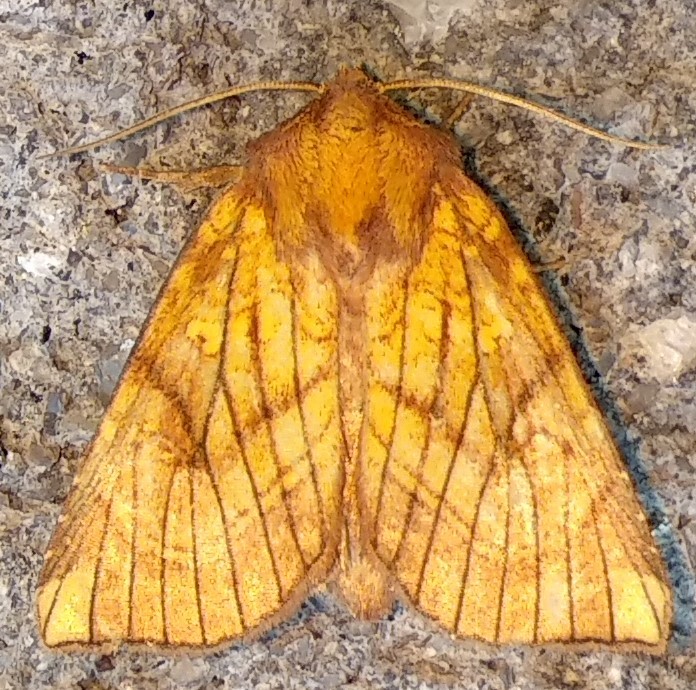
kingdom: Animalia
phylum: Arthropoda
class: Insecta
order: Lepidoptera
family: Noctuidae
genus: Papaipema
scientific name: Papaipema inquaesita
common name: Sensitive fern borer moth
